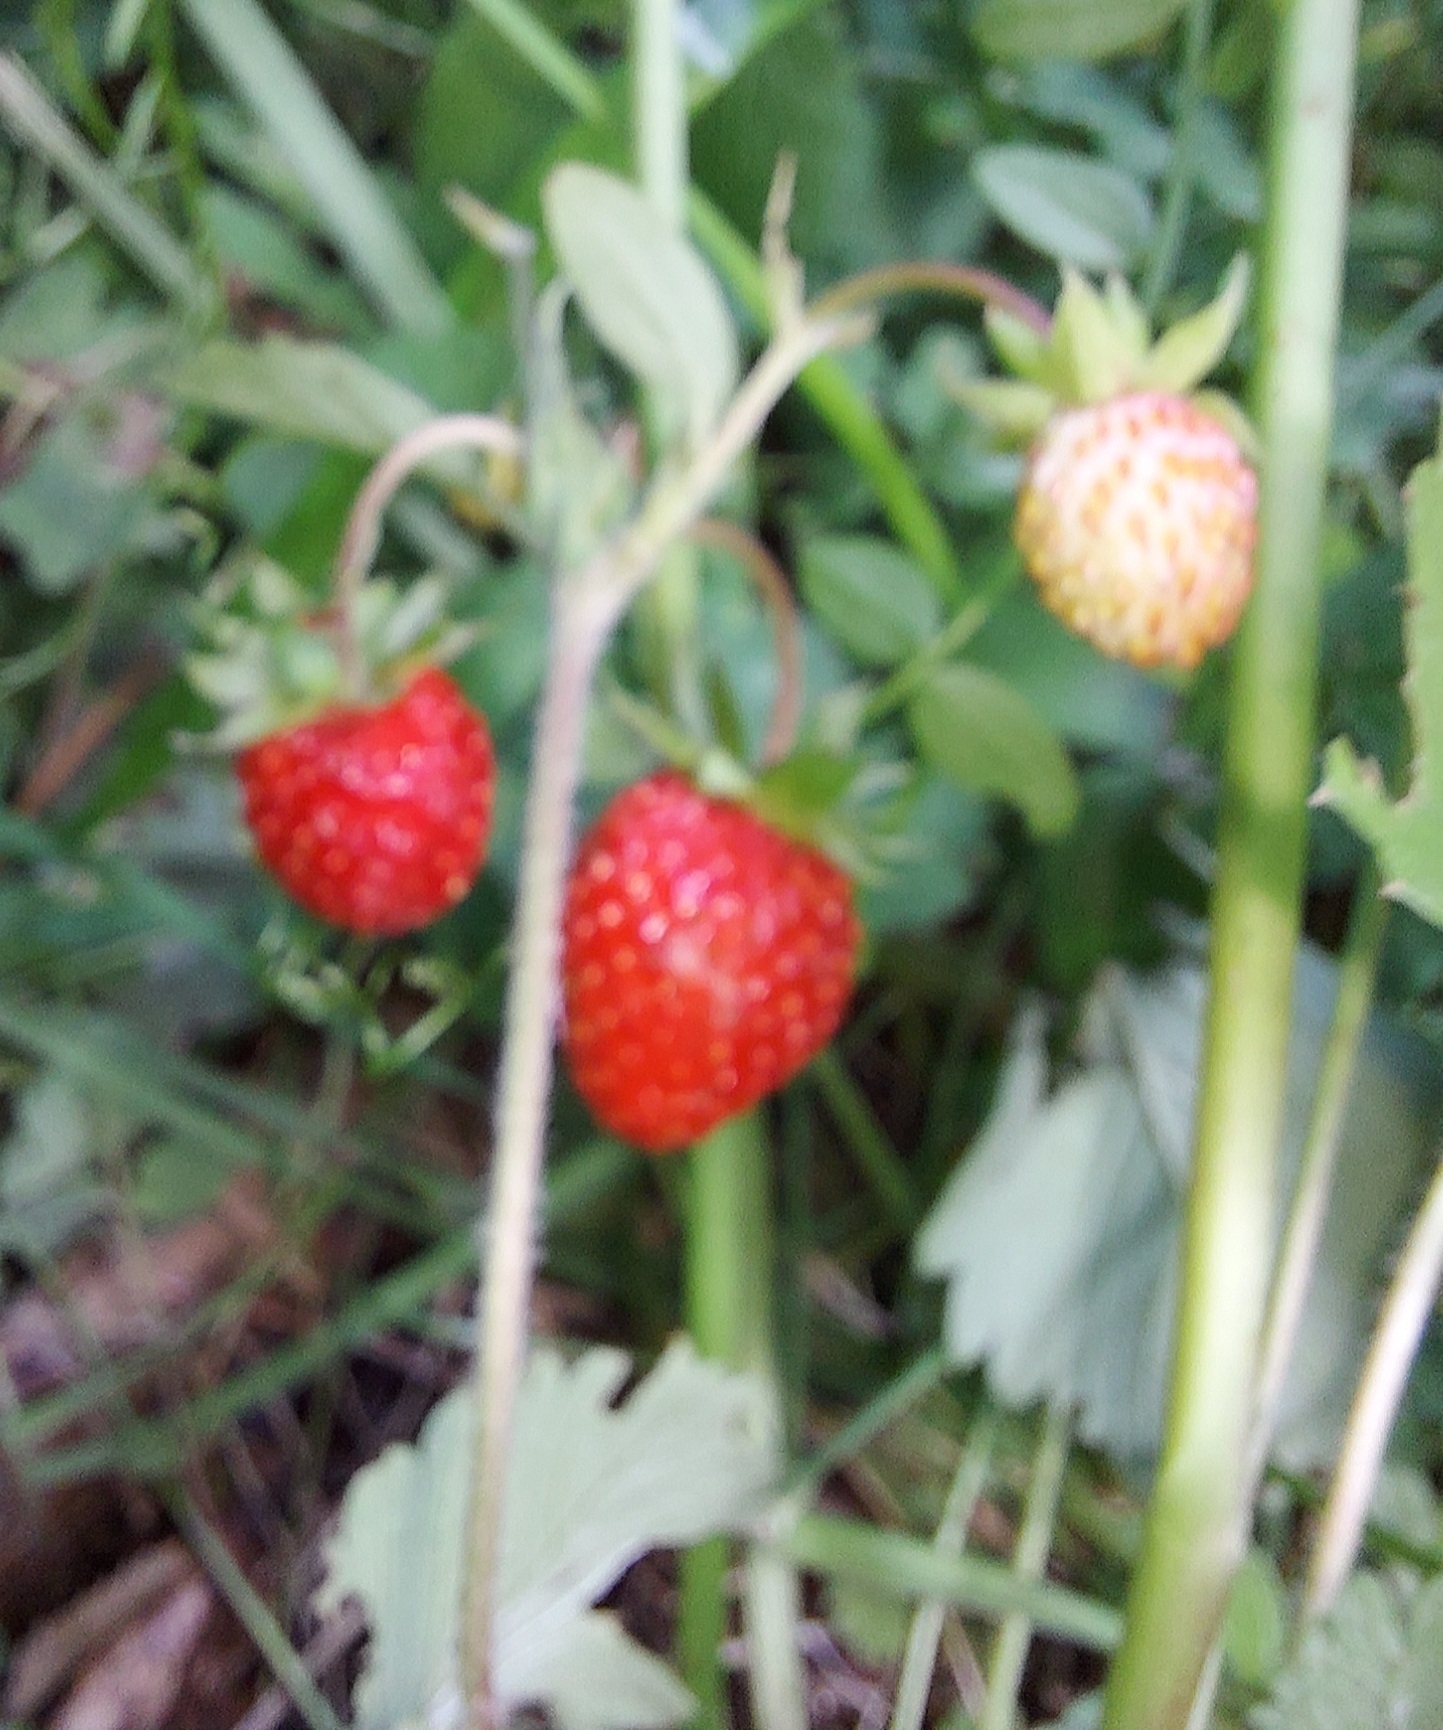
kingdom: Plantae
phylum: Tracheophyta
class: Magnoliopsida
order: Rosales
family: Rosaceae
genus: Fragaria
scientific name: Fragaria vesca
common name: Wild strawberry
